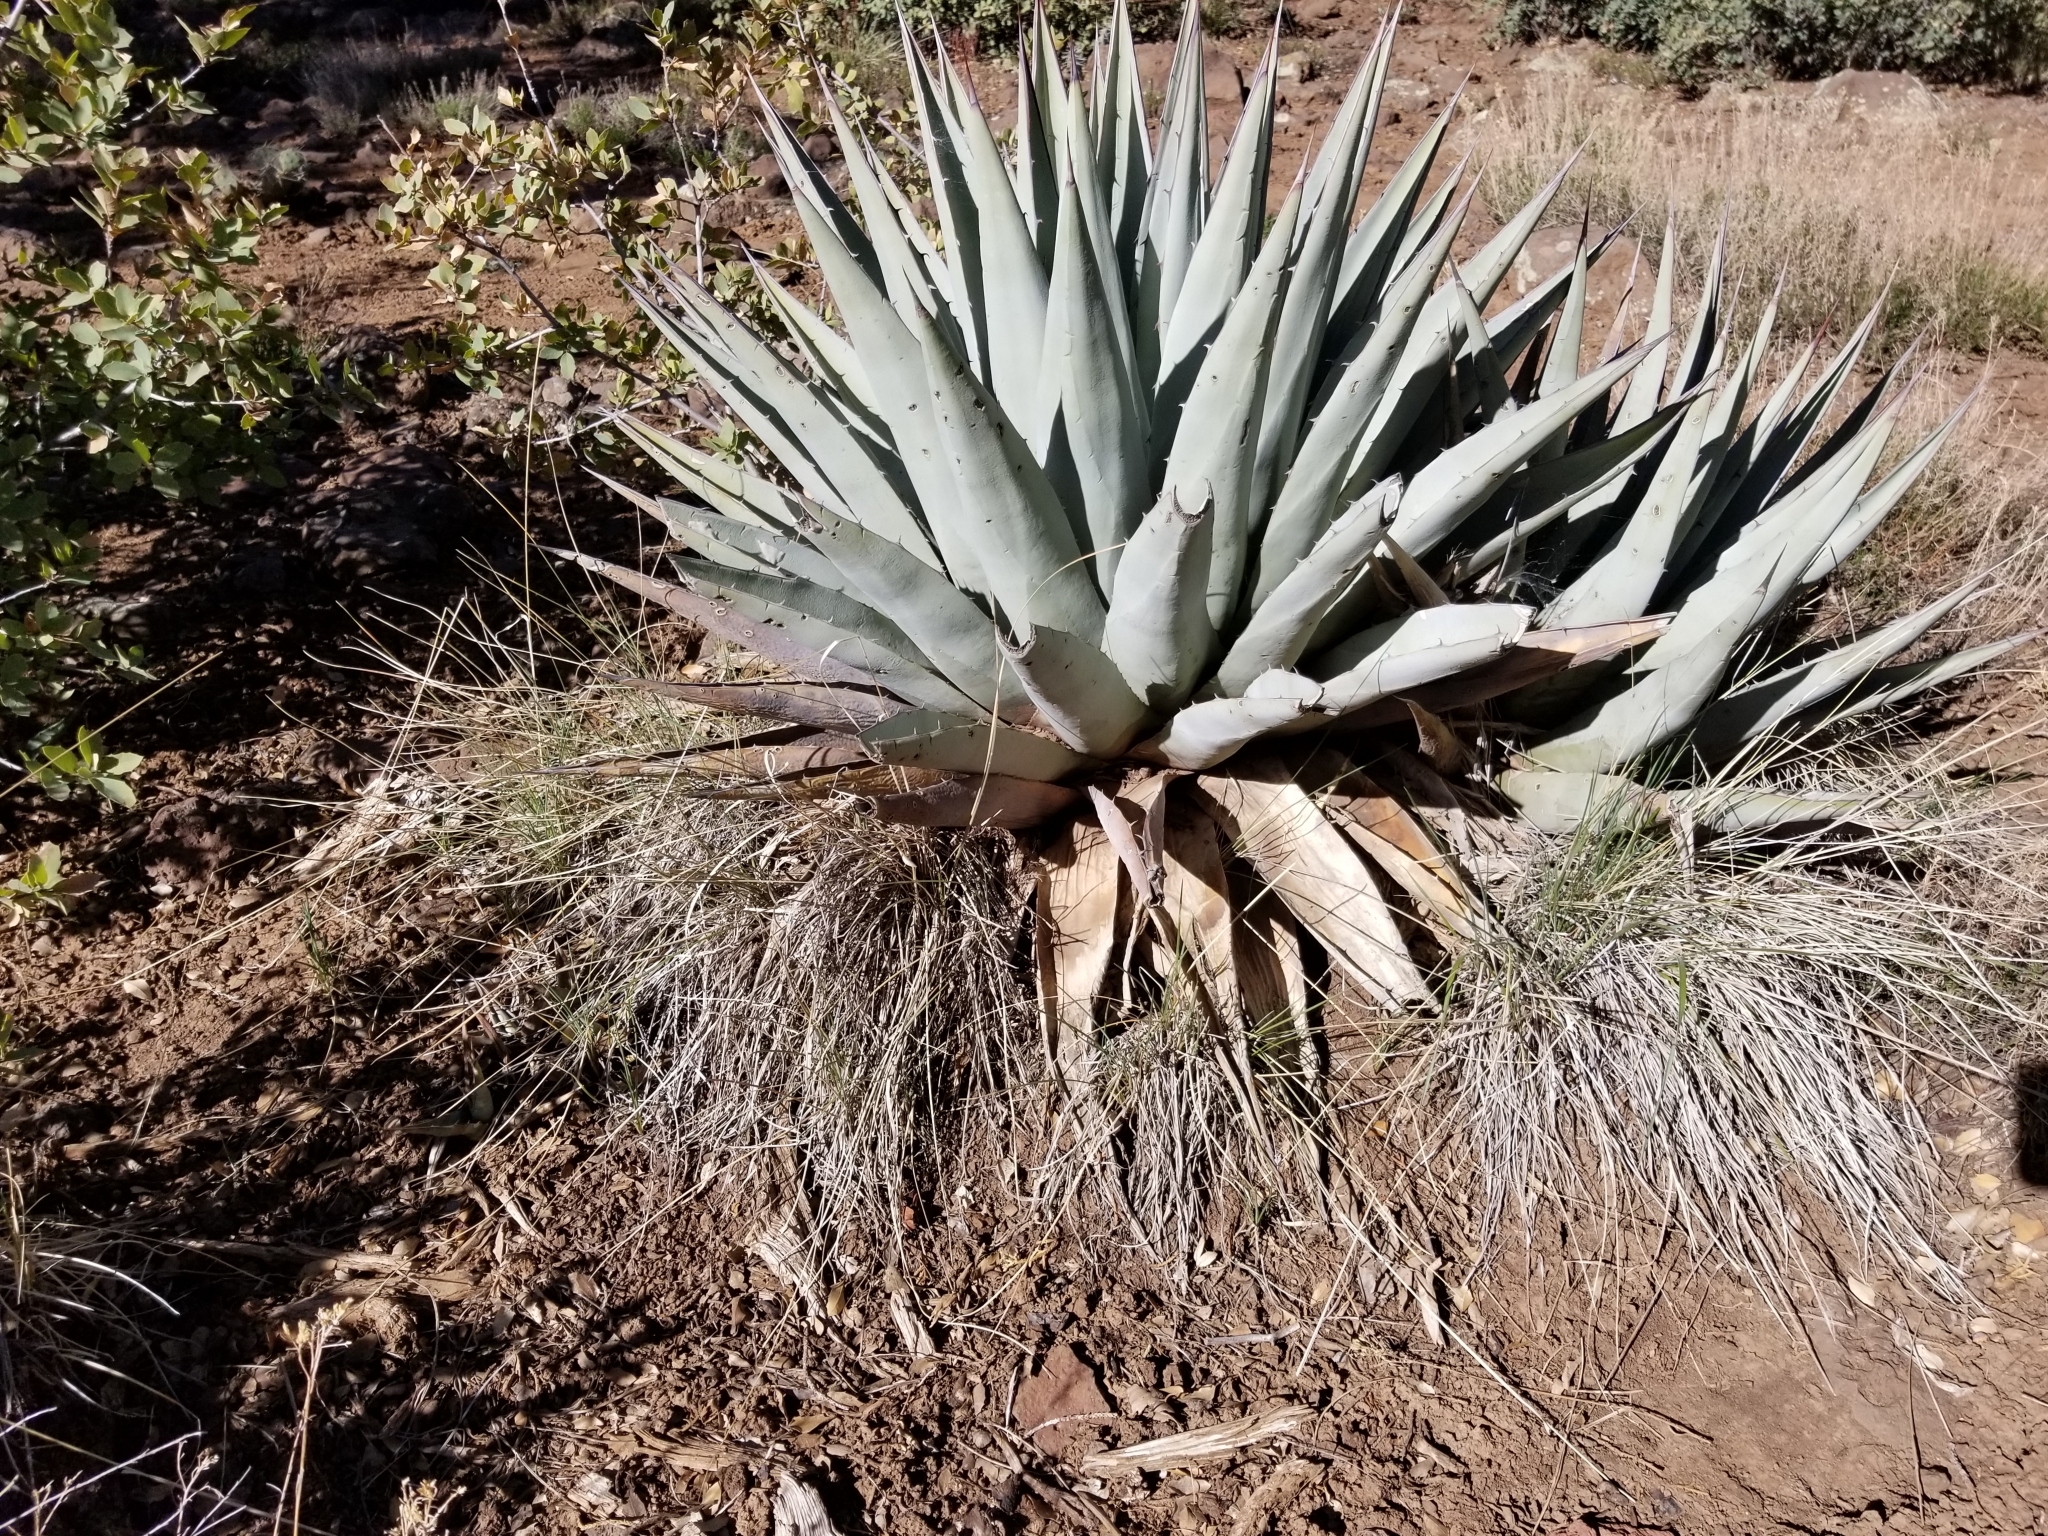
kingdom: Plantae
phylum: Tracheophyta
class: Liliopsida
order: Asparagales
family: Asparagaceae
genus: Agave
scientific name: Agave parryi
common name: Parry's agave
